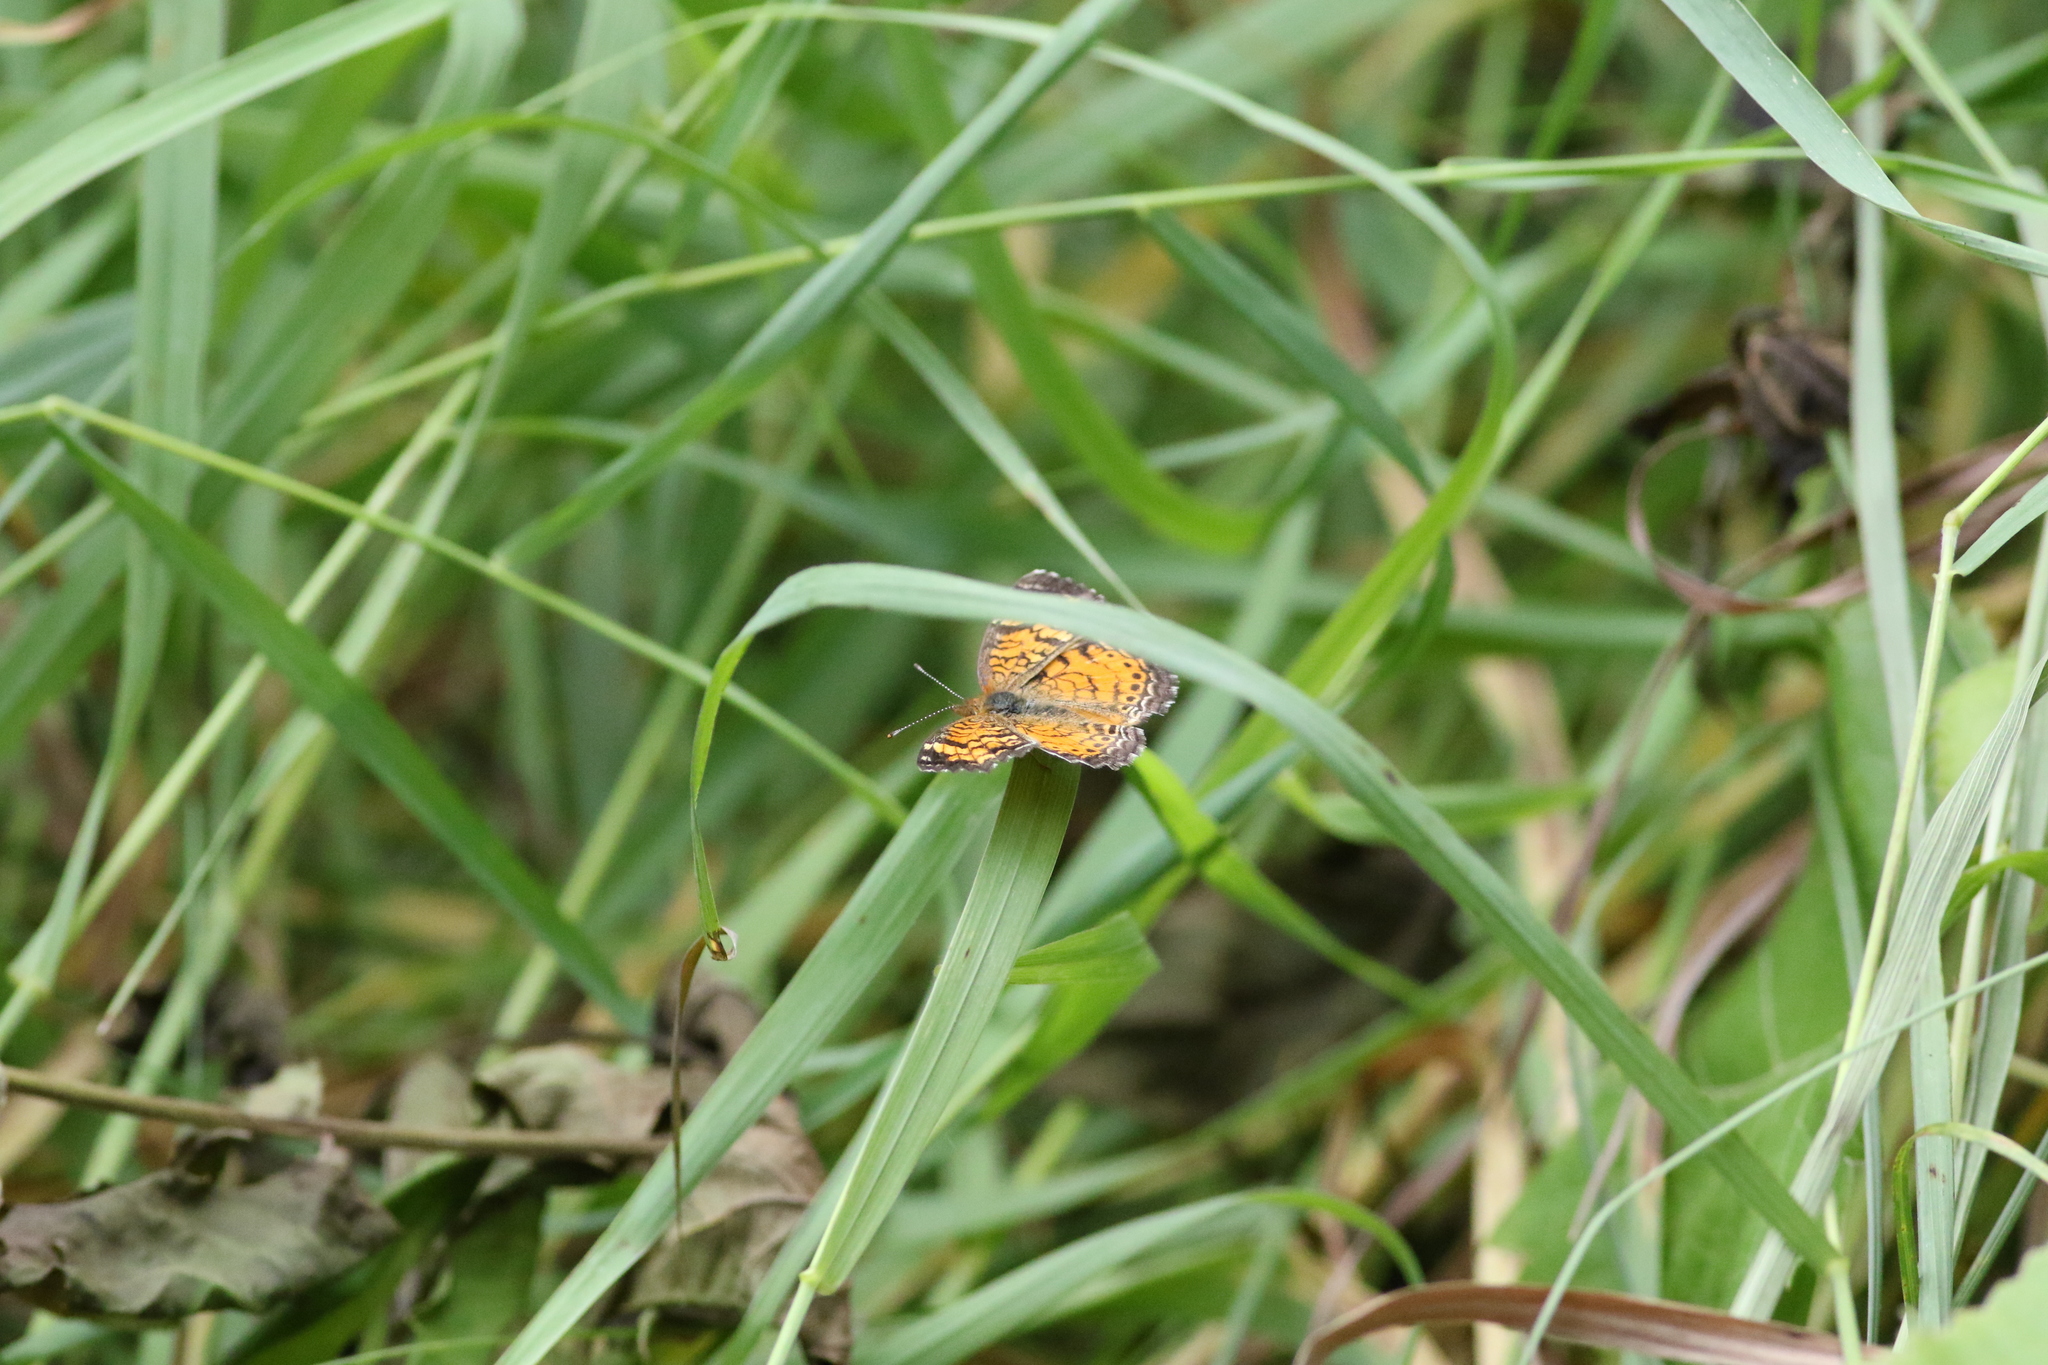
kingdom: Animalia
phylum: Arthropoda
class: Insecta
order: Lepidoptera
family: Nymphalidae
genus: Phyciodes
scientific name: Phyciodes tharos
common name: Pearl crescent
